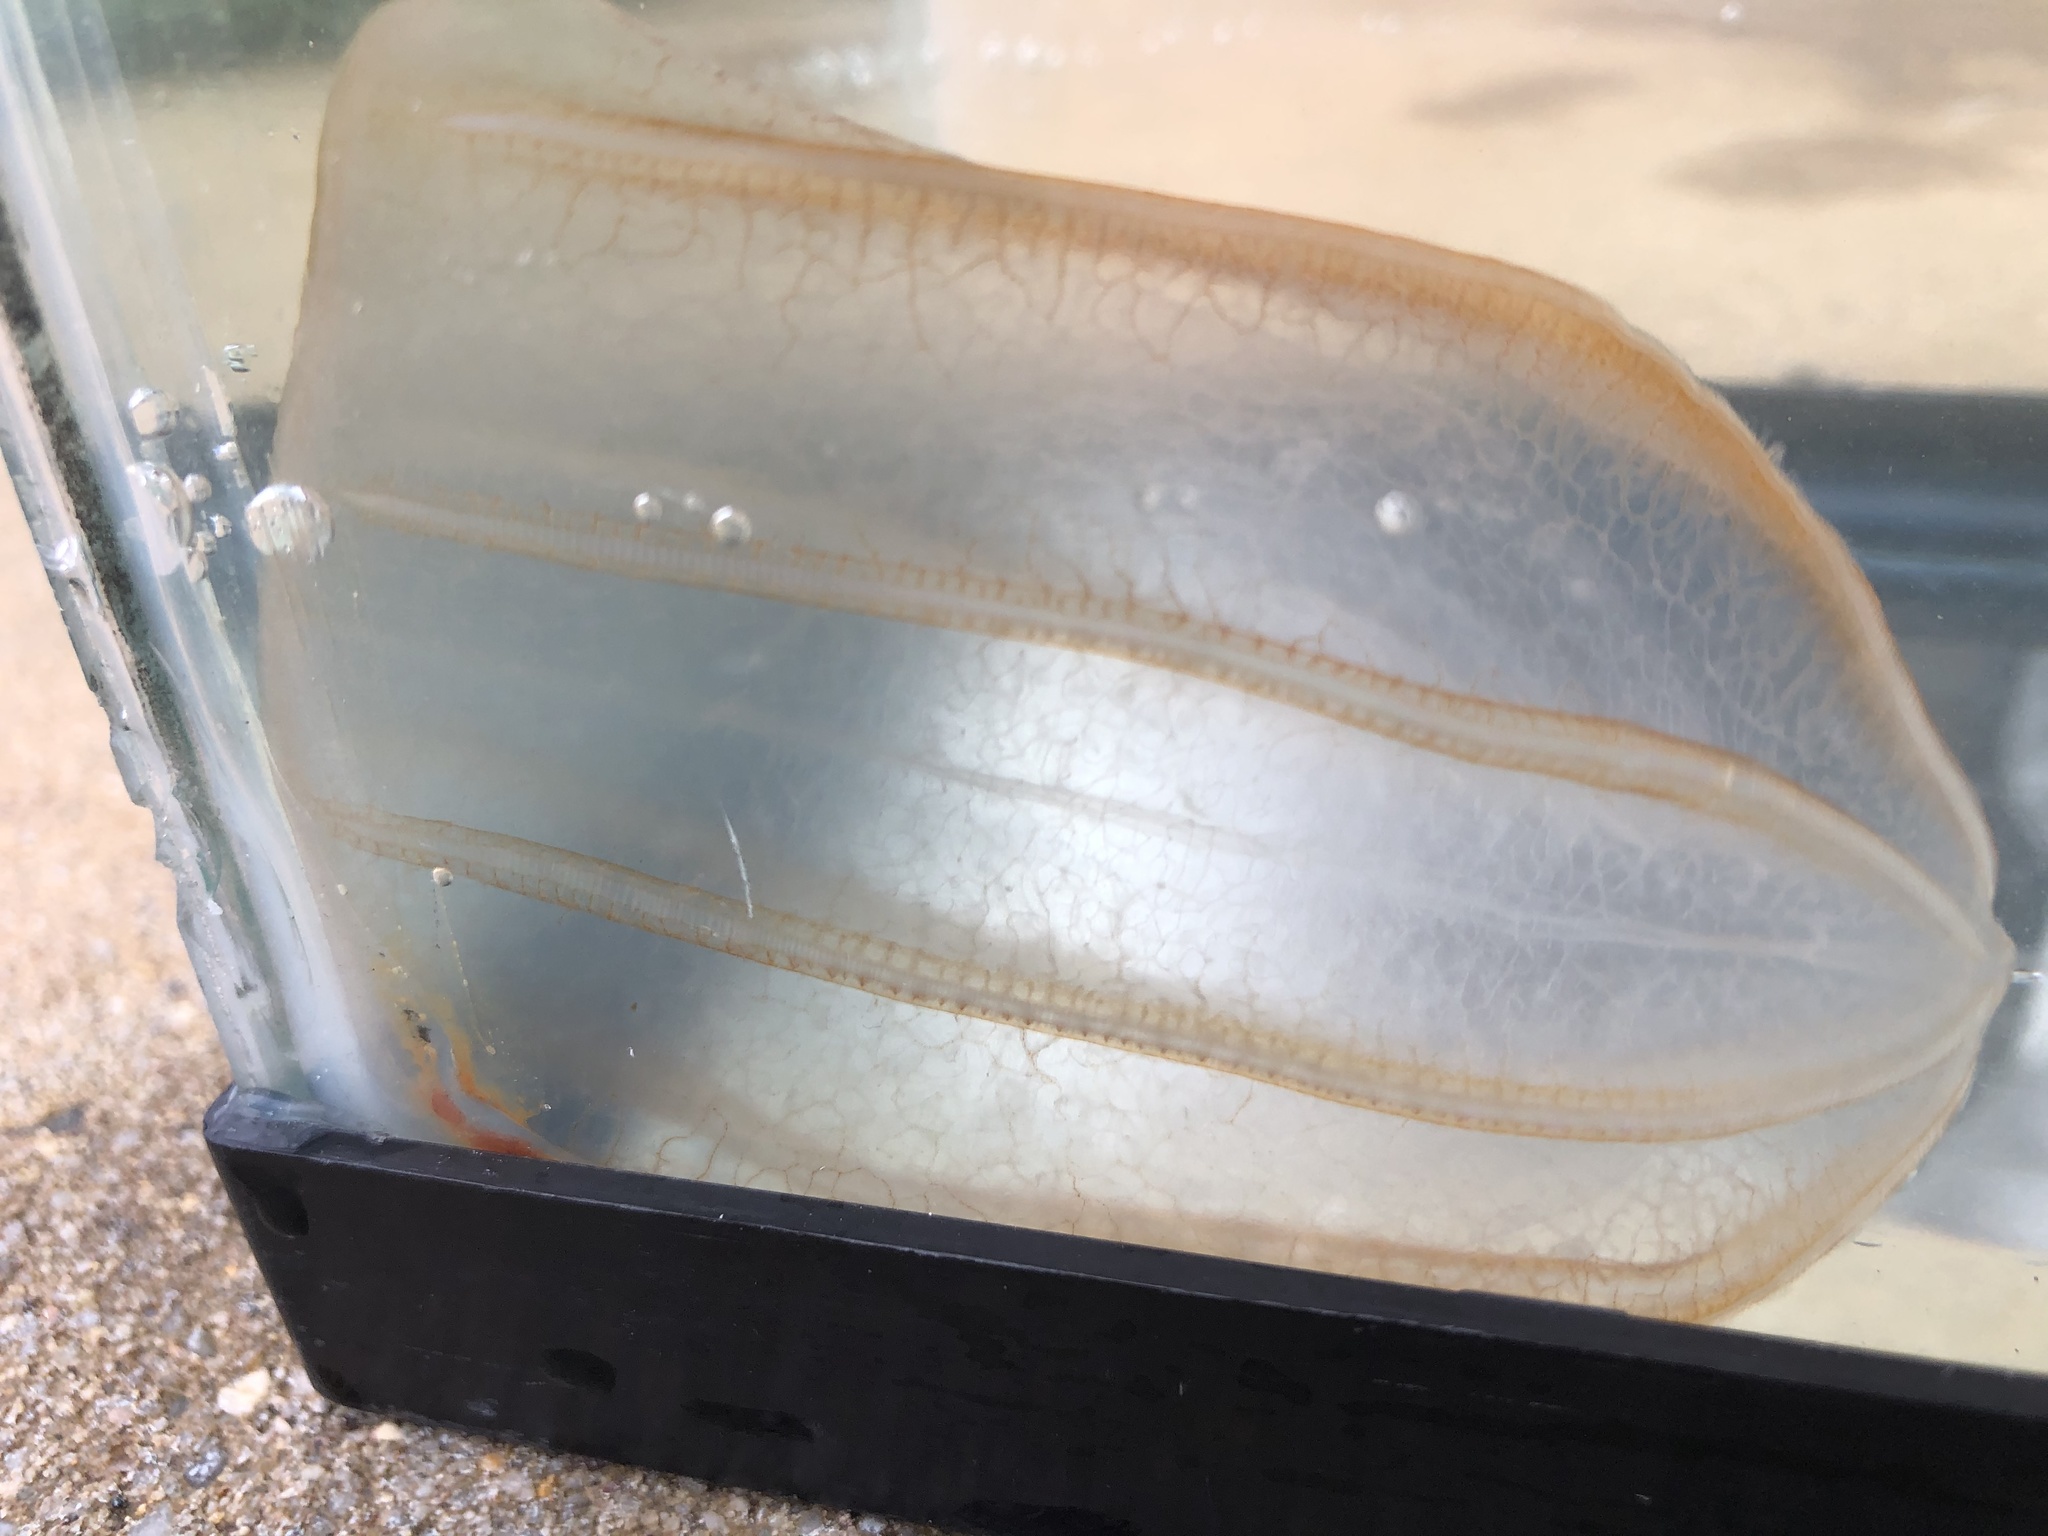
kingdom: Animalia
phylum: Ctenophora
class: Nuda
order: Beroida
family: Beroidae
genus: Beroe
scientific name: Beroe ovata
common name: Flattened helmet comb jelly
